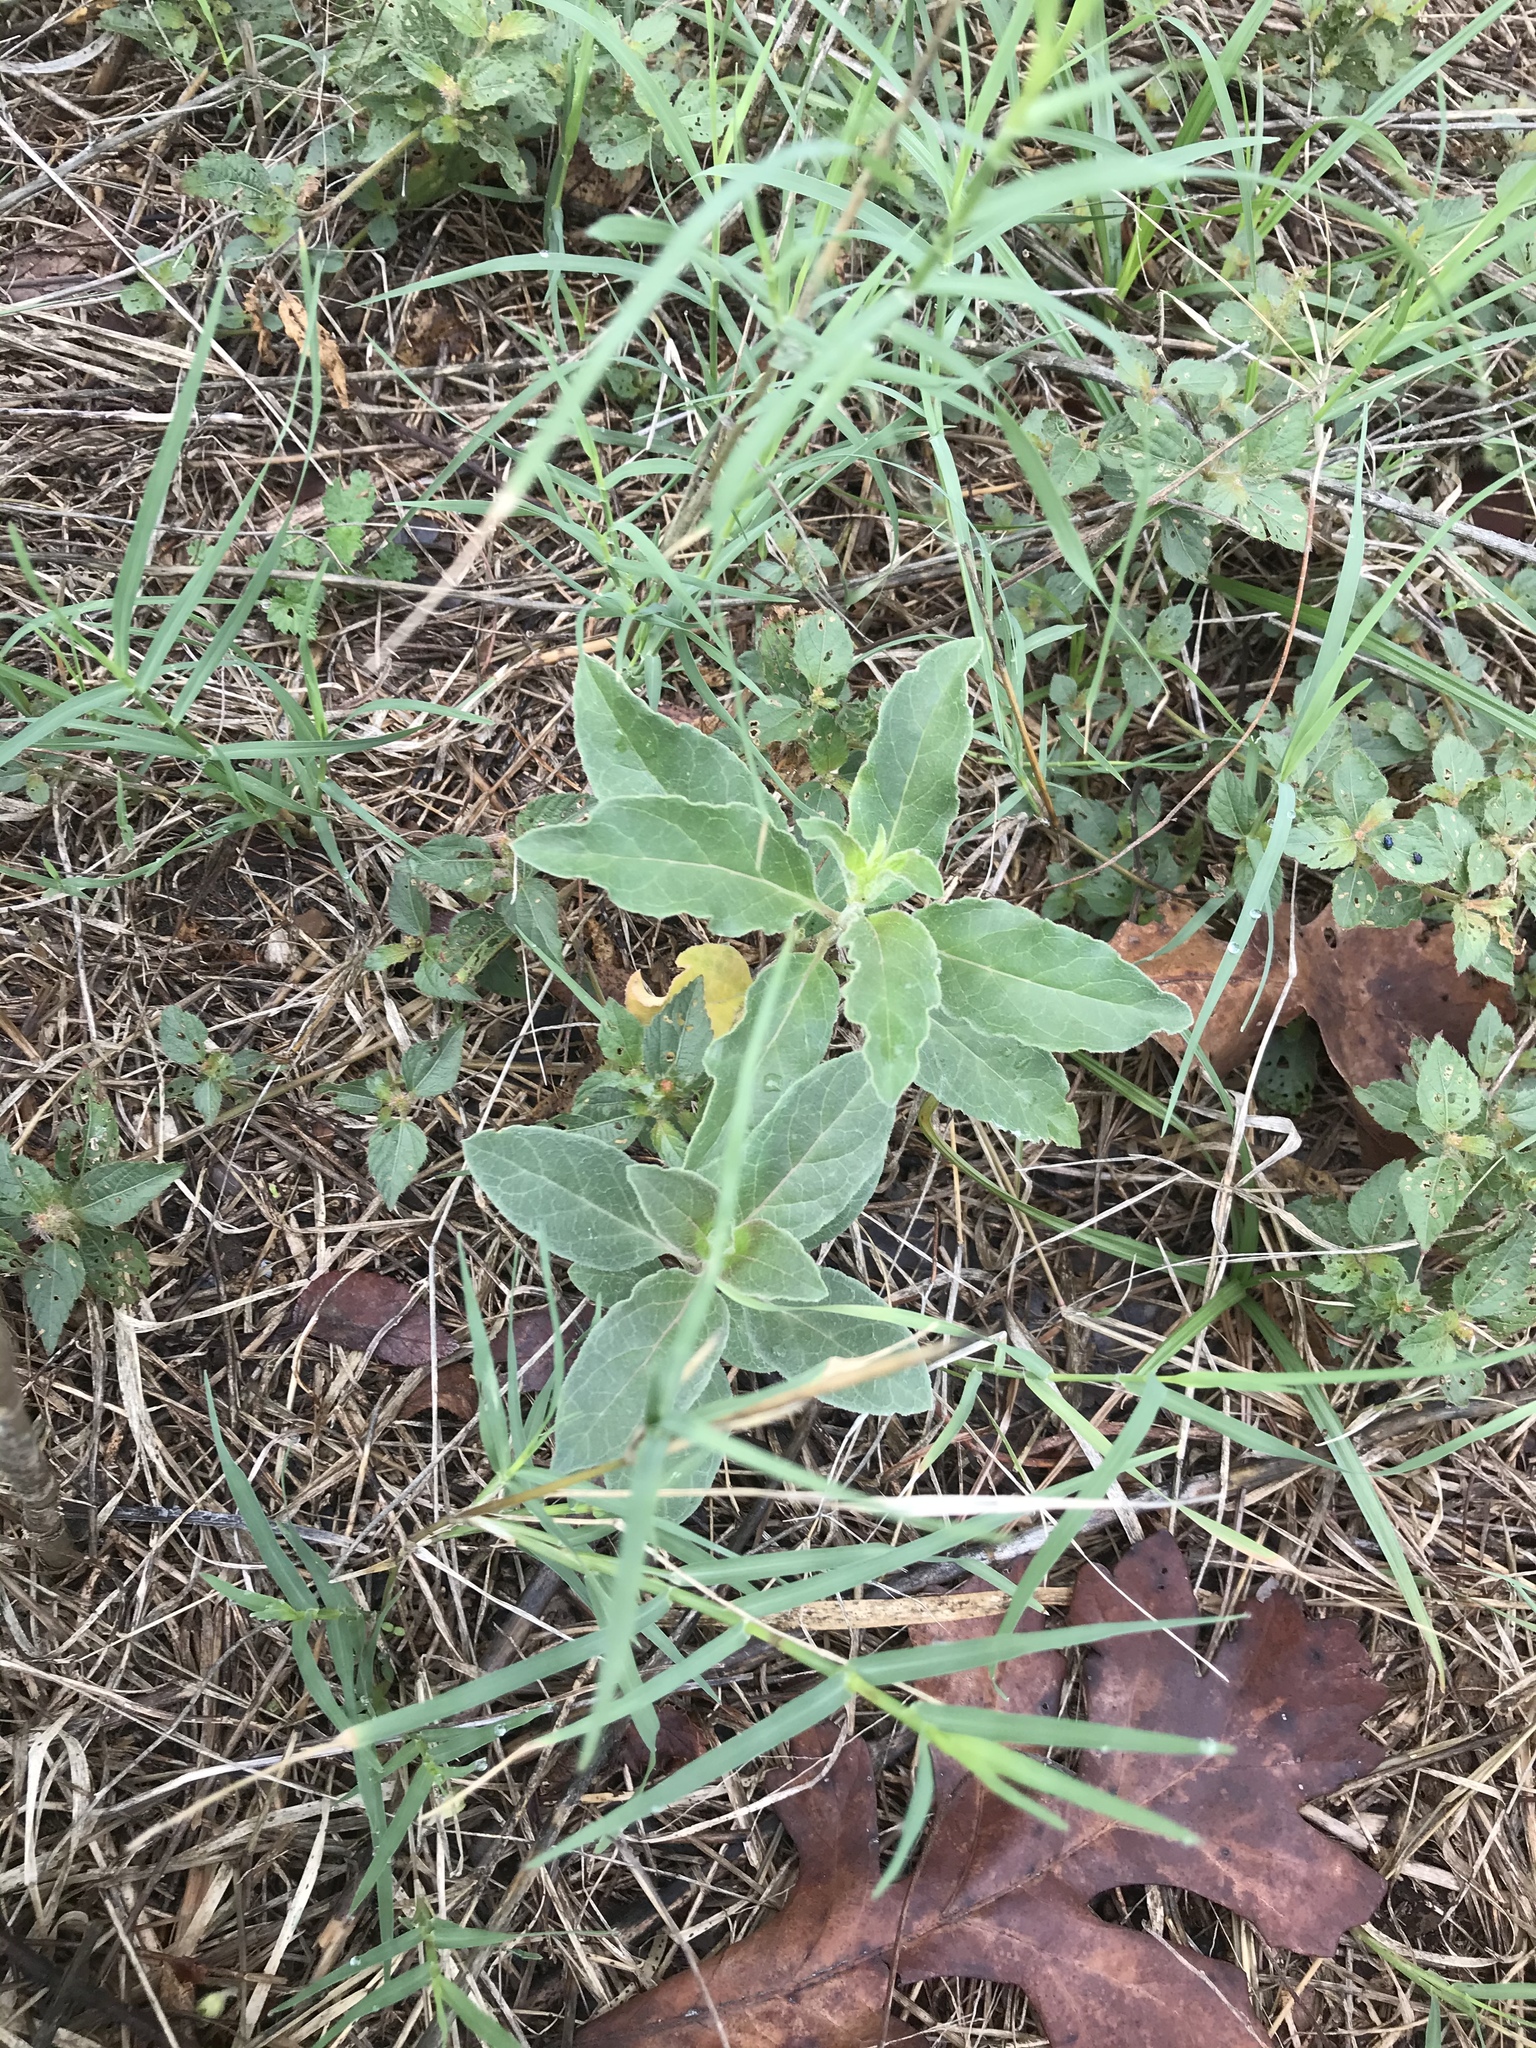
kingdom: Plantae
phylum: Tracheophyta
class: Magnoliopsida
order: Gentianales
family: Apocynaceae
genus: Asclepias
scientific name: Asclepias oenotheroides
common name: Zizotes milkweed
